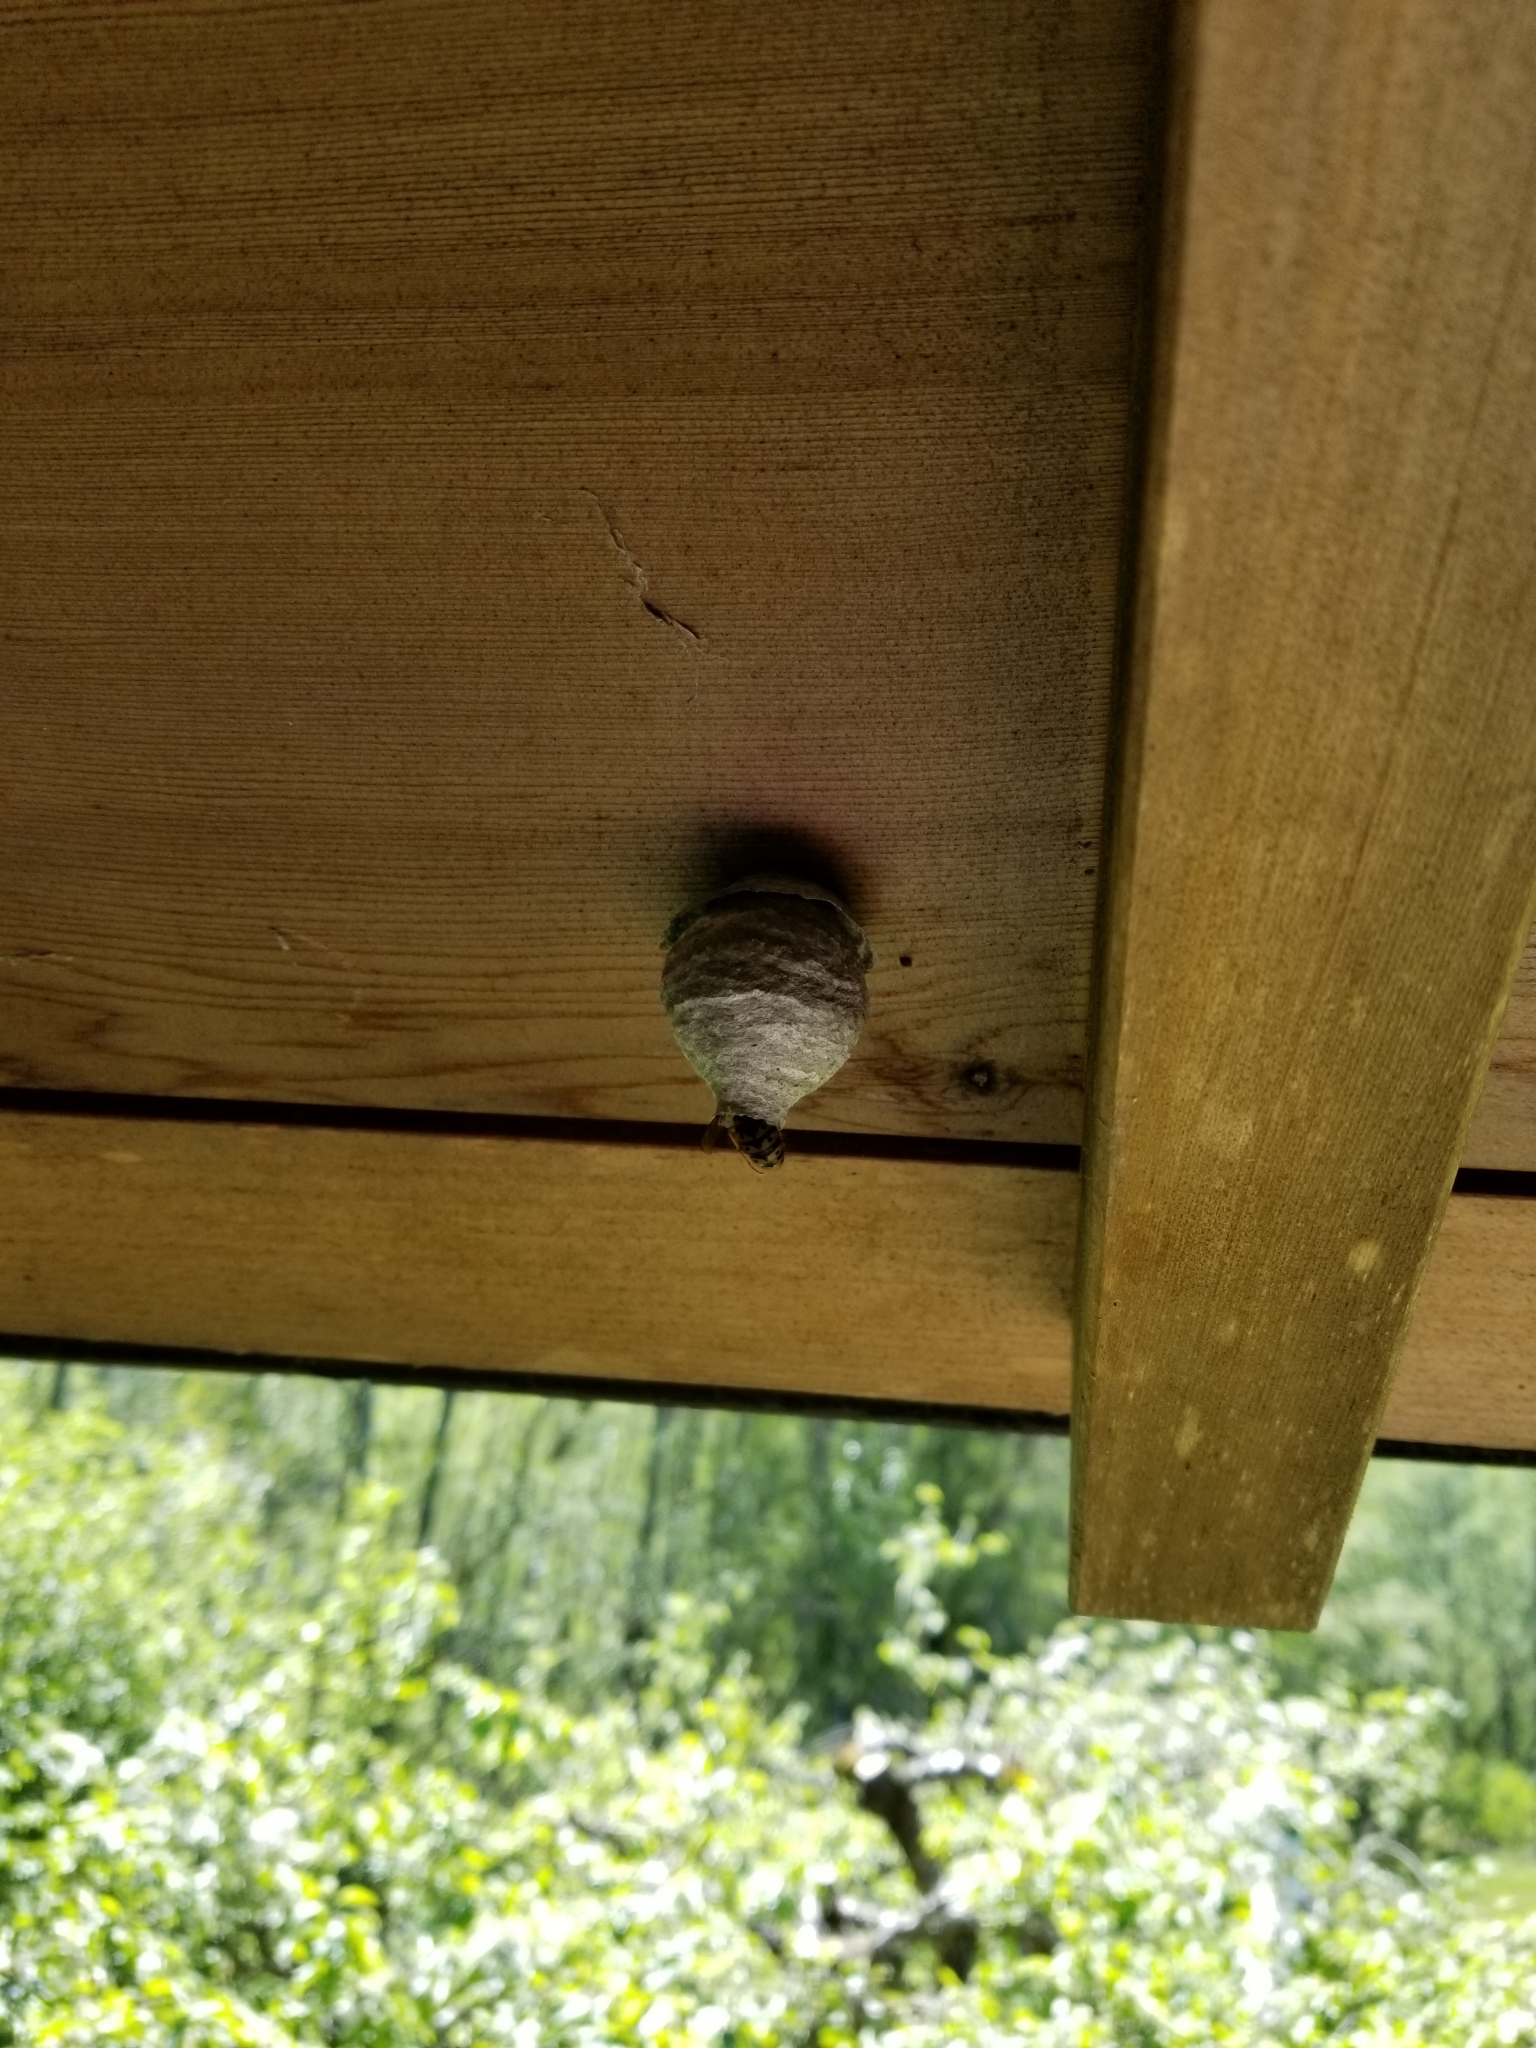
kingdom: Animalia
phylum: Arthropoda
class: Insecta
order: Hymenoptera
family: Vespidae
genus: Dolichovespula
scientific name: Dolichovespula arenaria
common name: Aerial yellowjacket
